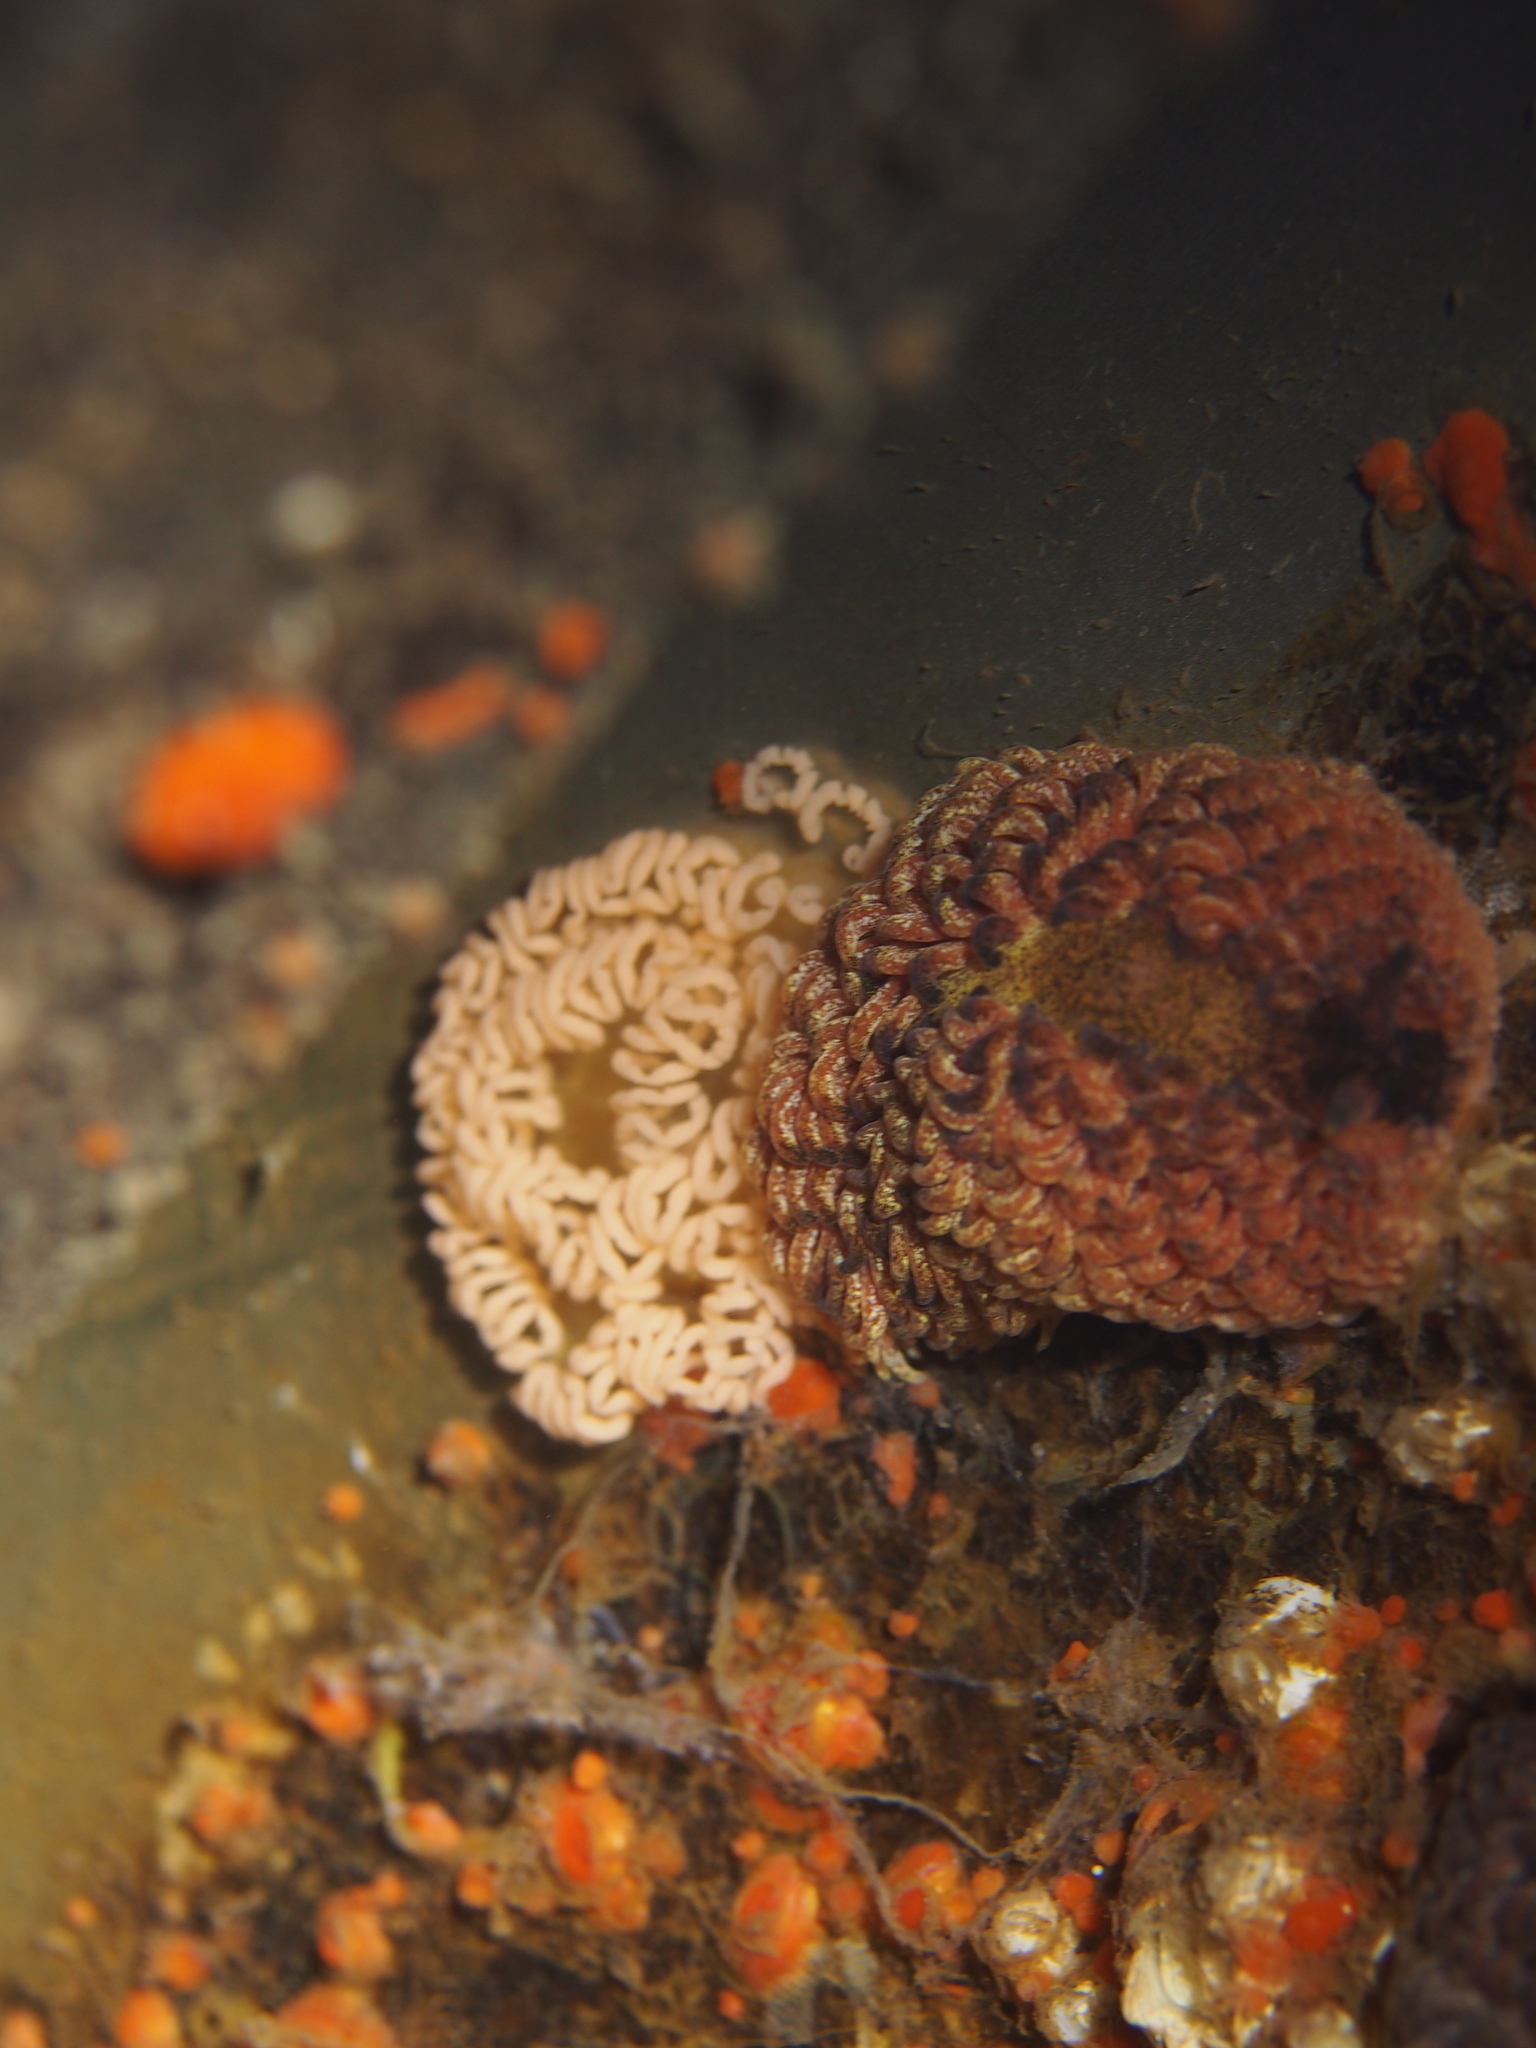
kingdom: Animalia
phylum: Mollusca
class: Gastropoda
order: Nudibranchia
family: Aeolidiidae
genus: Aeolidia
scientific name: Aeolidia papillosa
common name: Common grey sea slug
